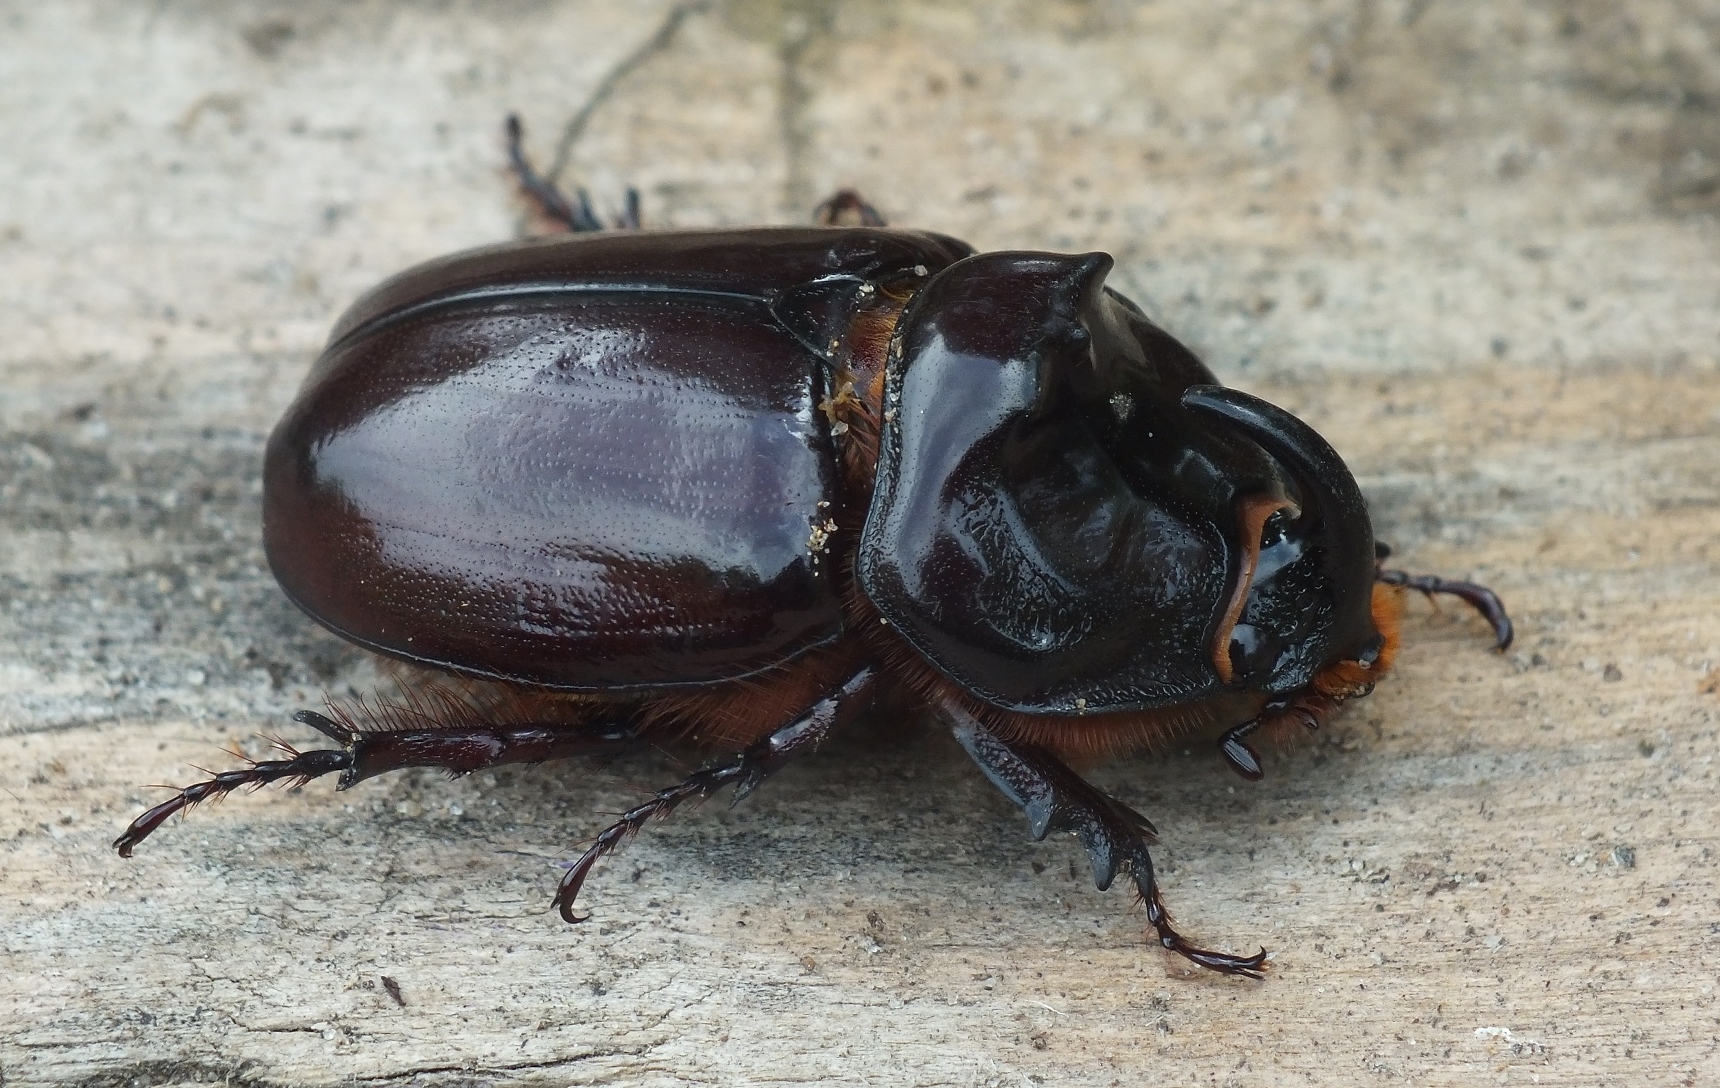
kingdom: Animalia
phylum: Arthropoda
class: Insecta
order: Coleoptera
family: Scarabaeidae
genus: Oryctes
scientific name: Oryctes nasicornis
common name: European rhinoceros beetle
